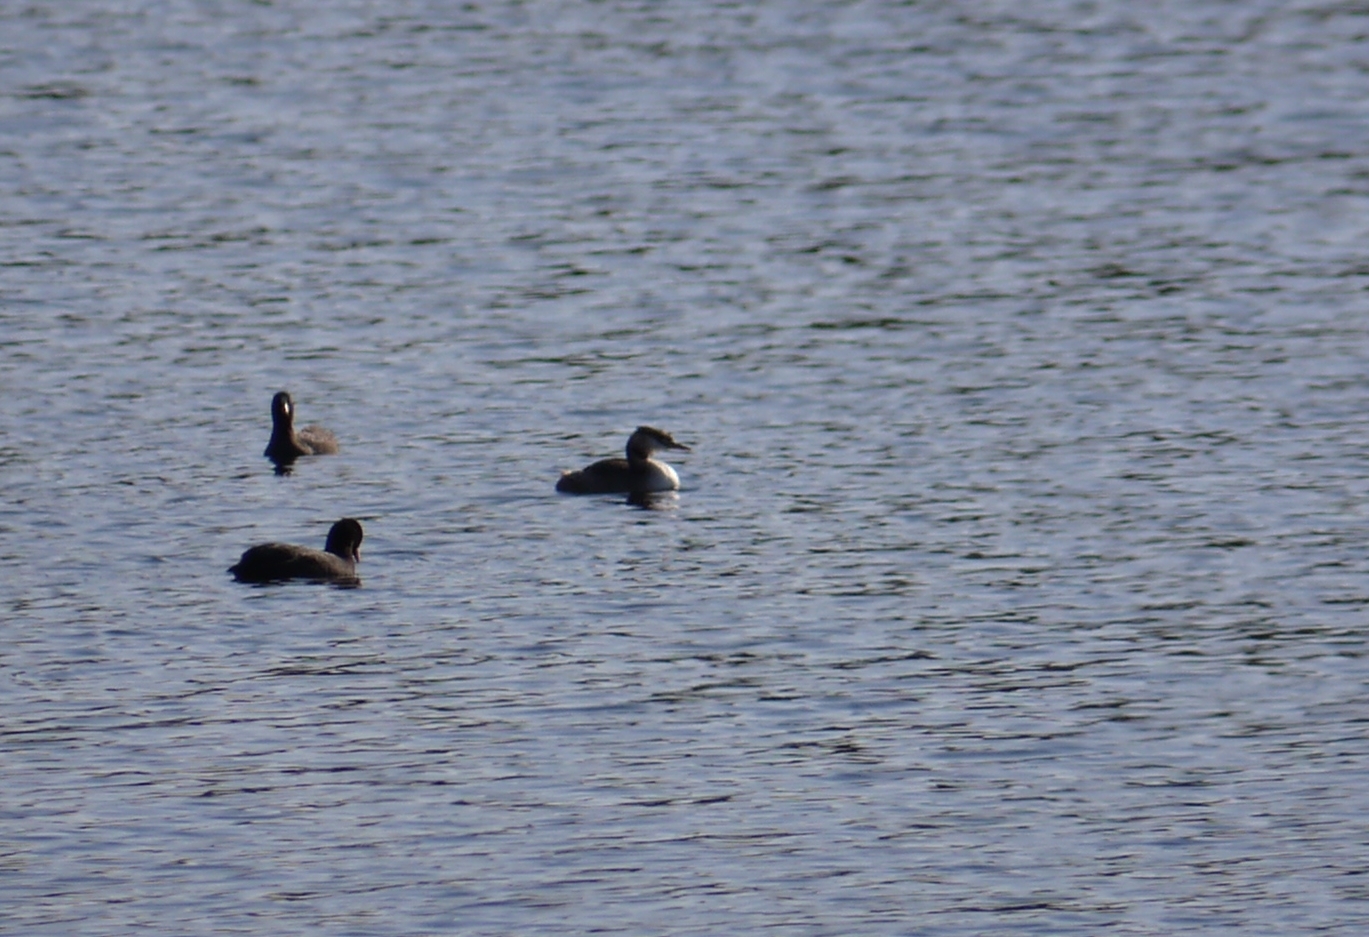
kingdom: Animalia
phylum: Chordata
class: Aves
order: Podicipediformes
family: Podicipedidae
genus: Podiceps
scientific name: Podiceps cristatus
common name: Great crested grebe
